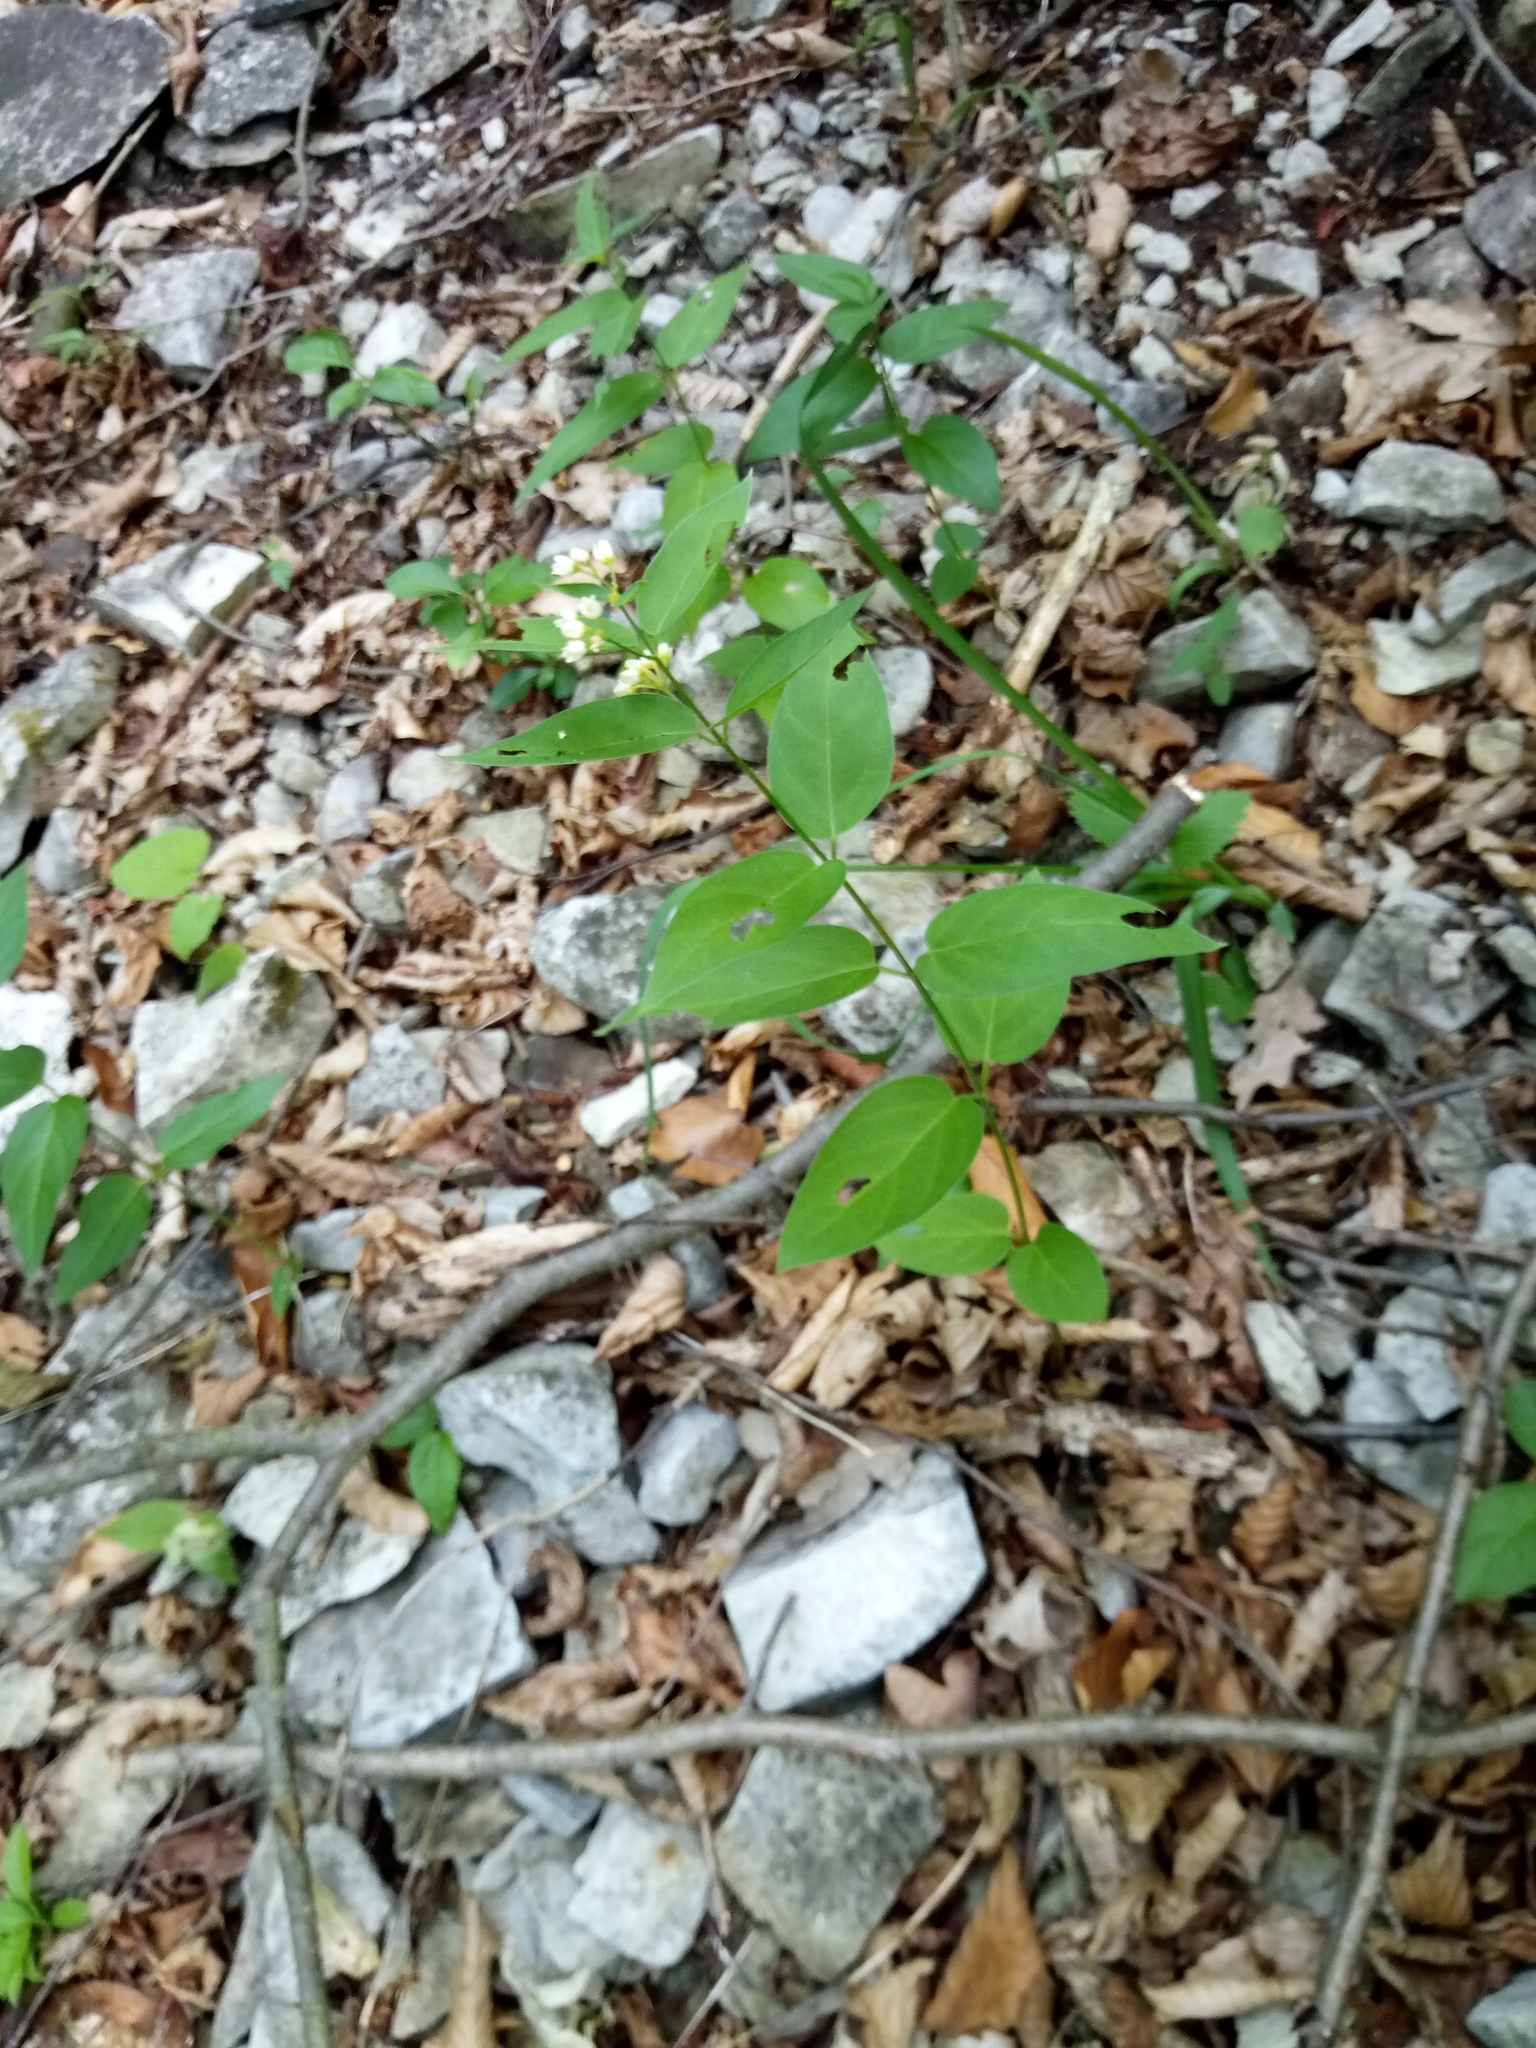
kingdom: Plantae
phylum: Tracheophyta
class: Magnoliopsida
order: Gentianales
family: Apocynaceae
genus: Vincetoxicum
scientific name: Vincetoxicum hirundinaria
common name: White swallowwort
